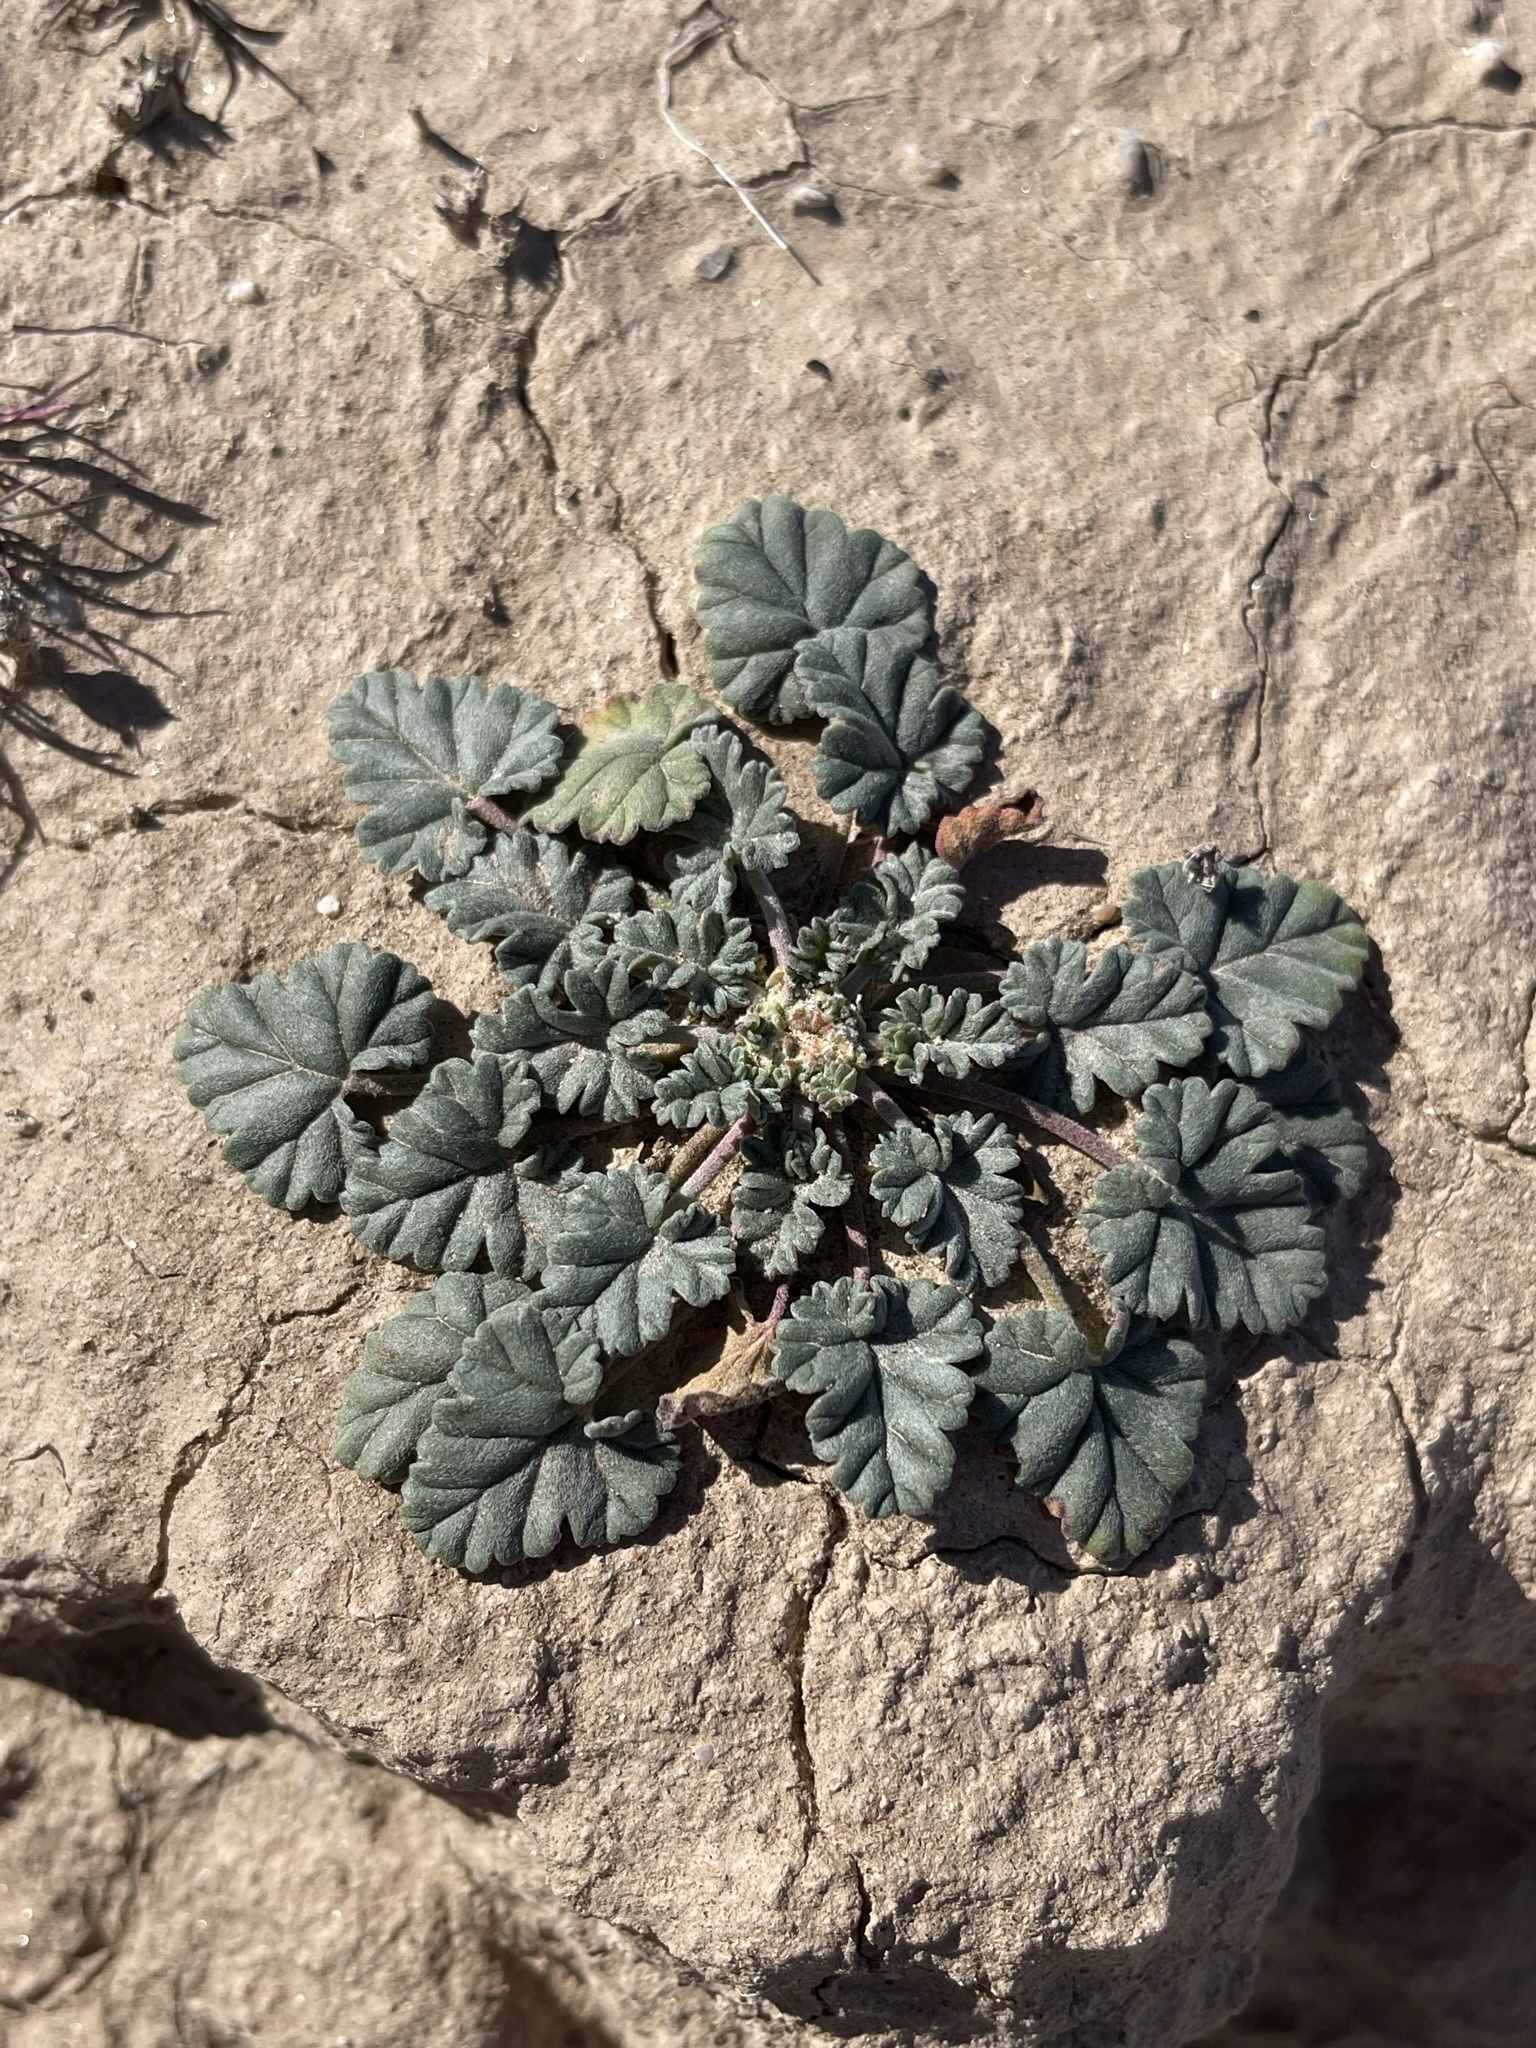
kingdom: Plantae
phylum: Tracheophyta
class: Magnoliopsida
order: Geraniales
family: Geraniaceae
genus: Erodium
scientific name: Erodium texanum
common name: Texas stork's-bill
